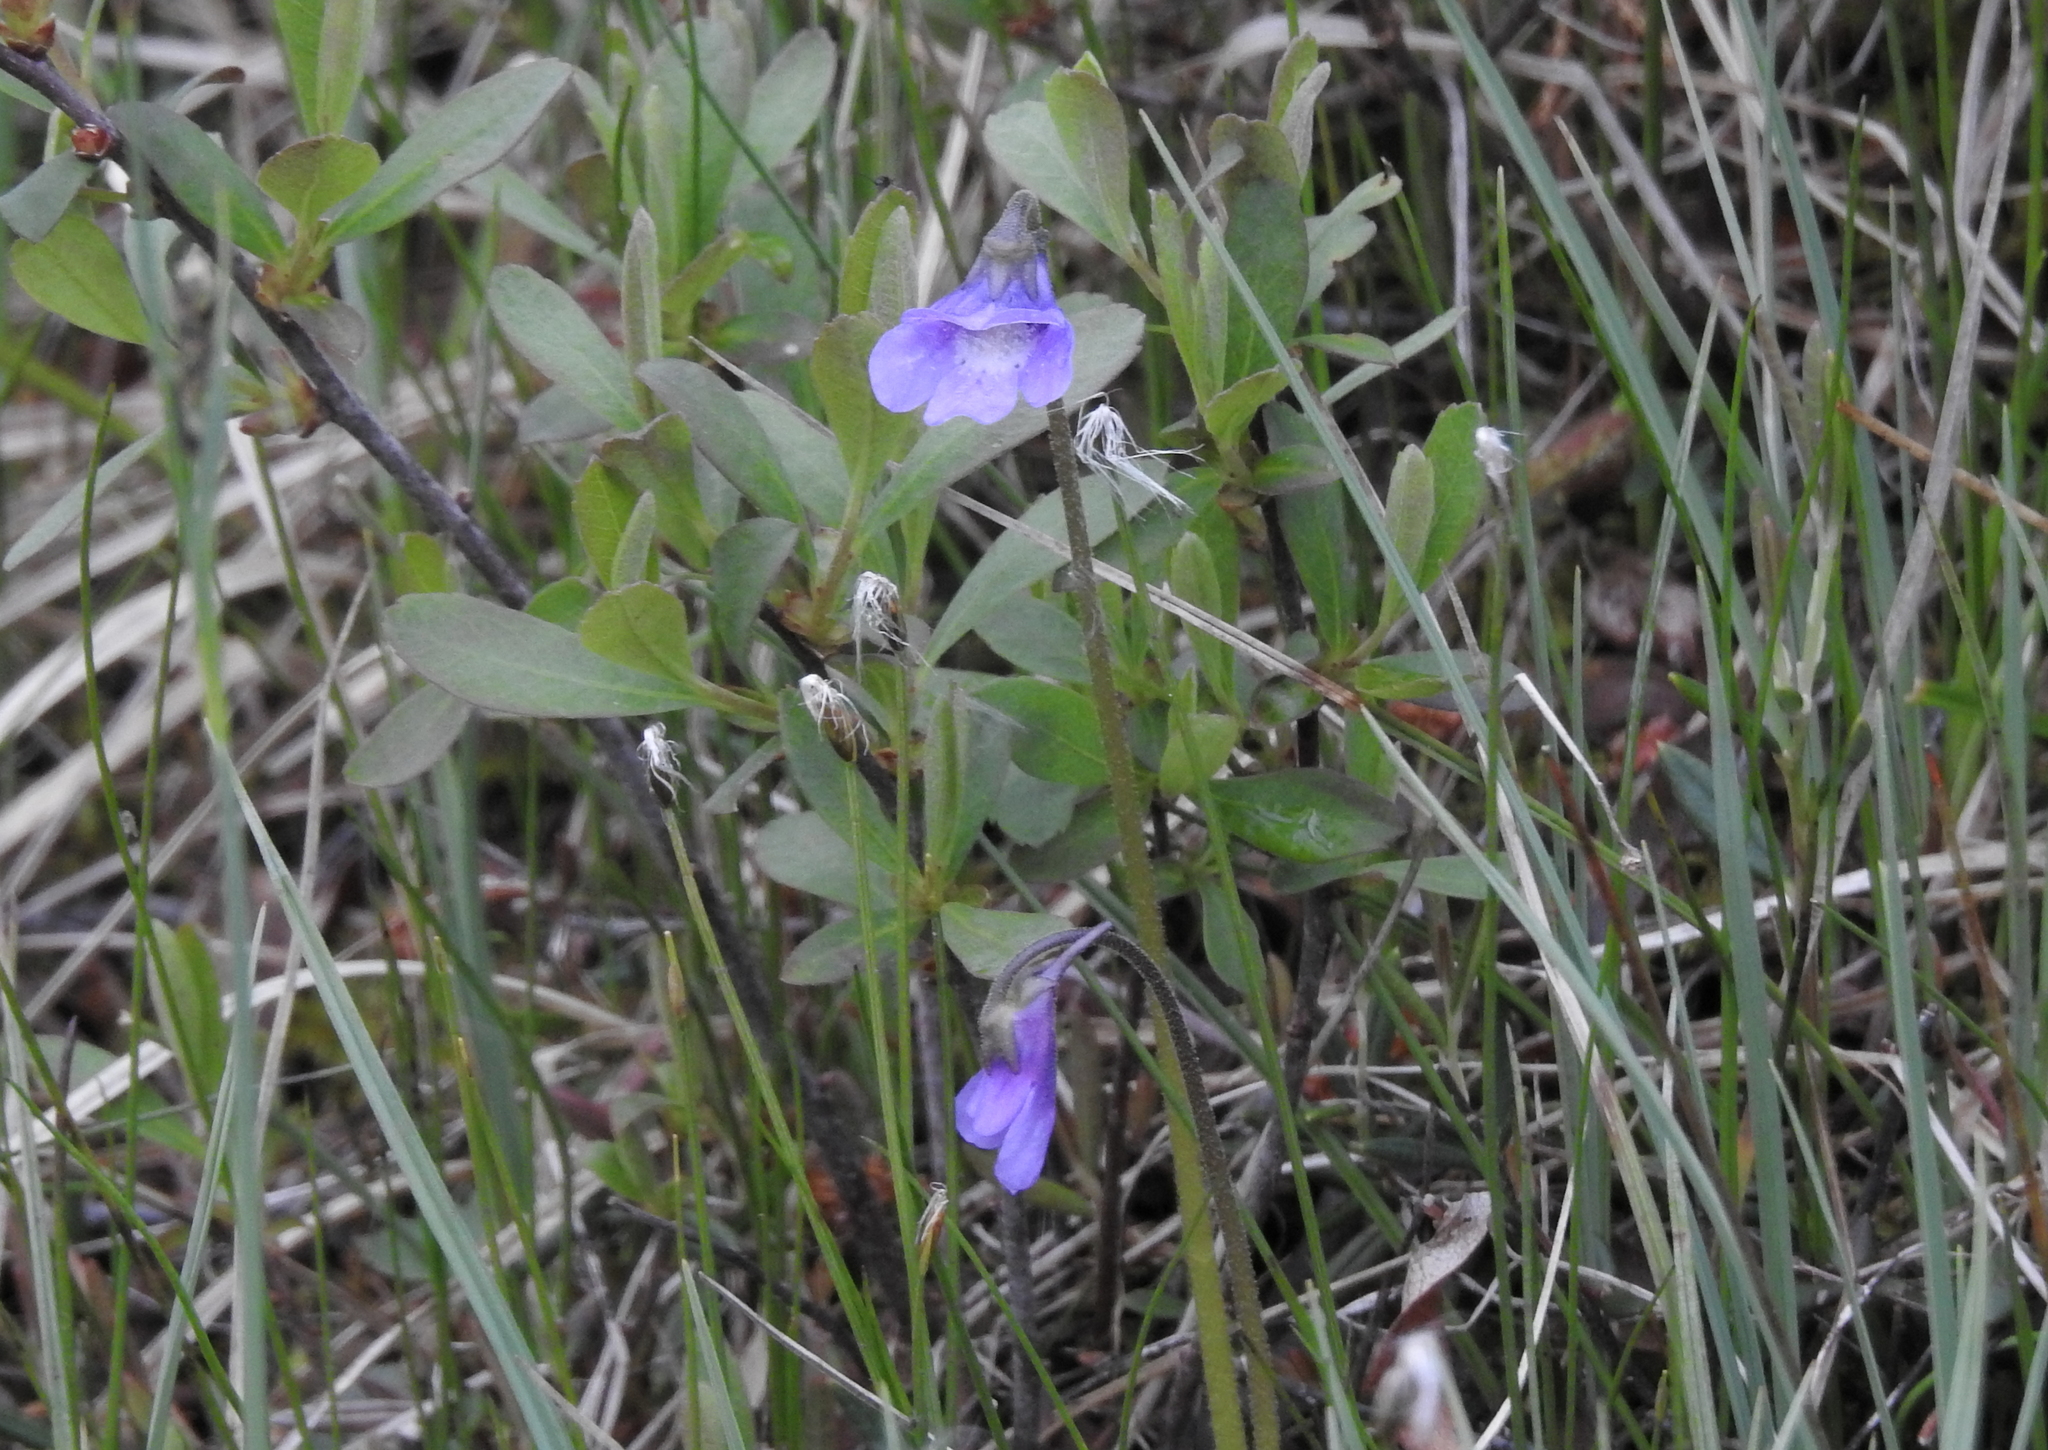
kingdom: Plantae
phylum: Tracheophyta
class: Magnoliopsida
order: Lamiales
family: Lentibulariaceae
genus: Pinguicula
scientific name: Pinguicula vulgaris
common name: Common butterwort
